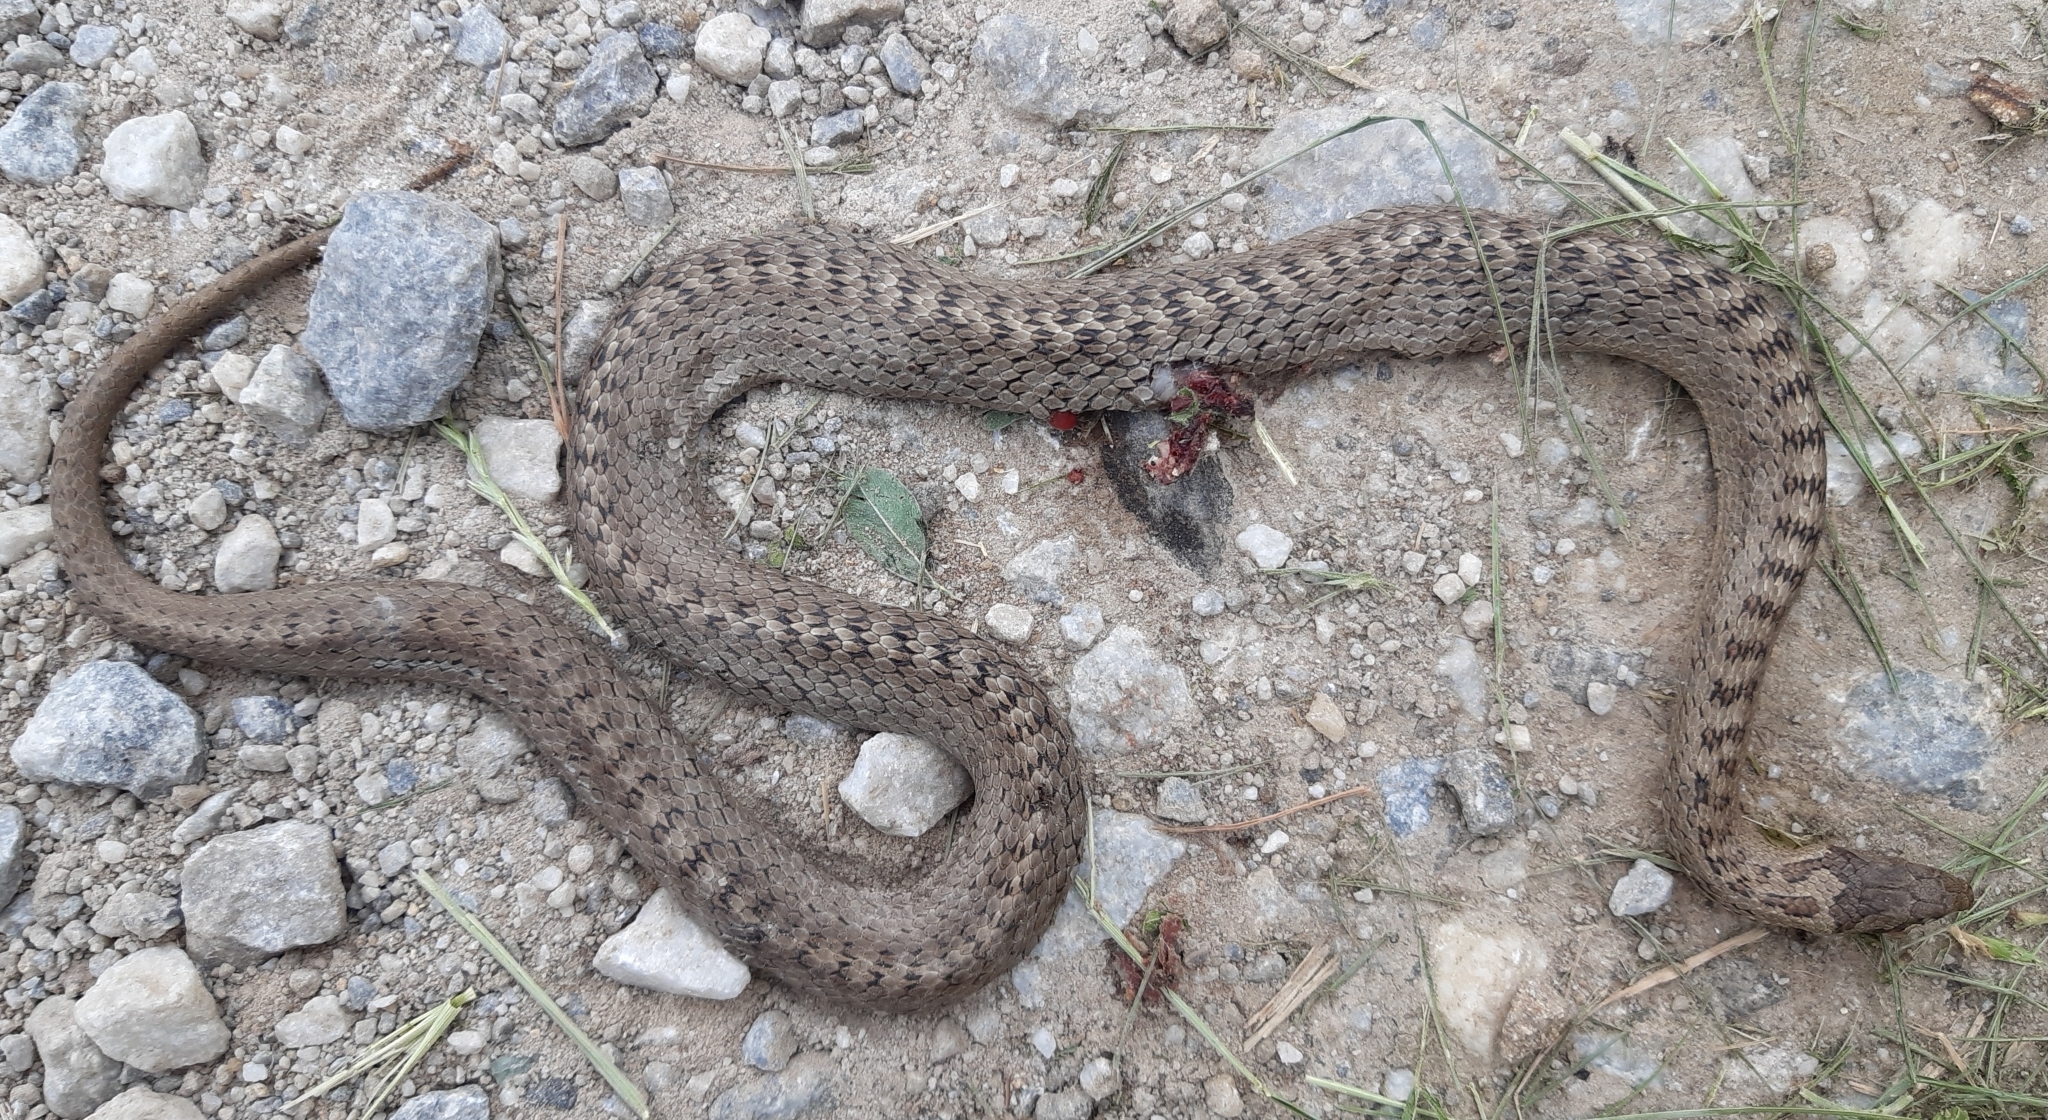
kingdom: Animalia
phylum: Chordata
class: Squamata
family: Colubridae
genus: Coronella
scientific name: Coronella austriaca
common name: Smooth snake
